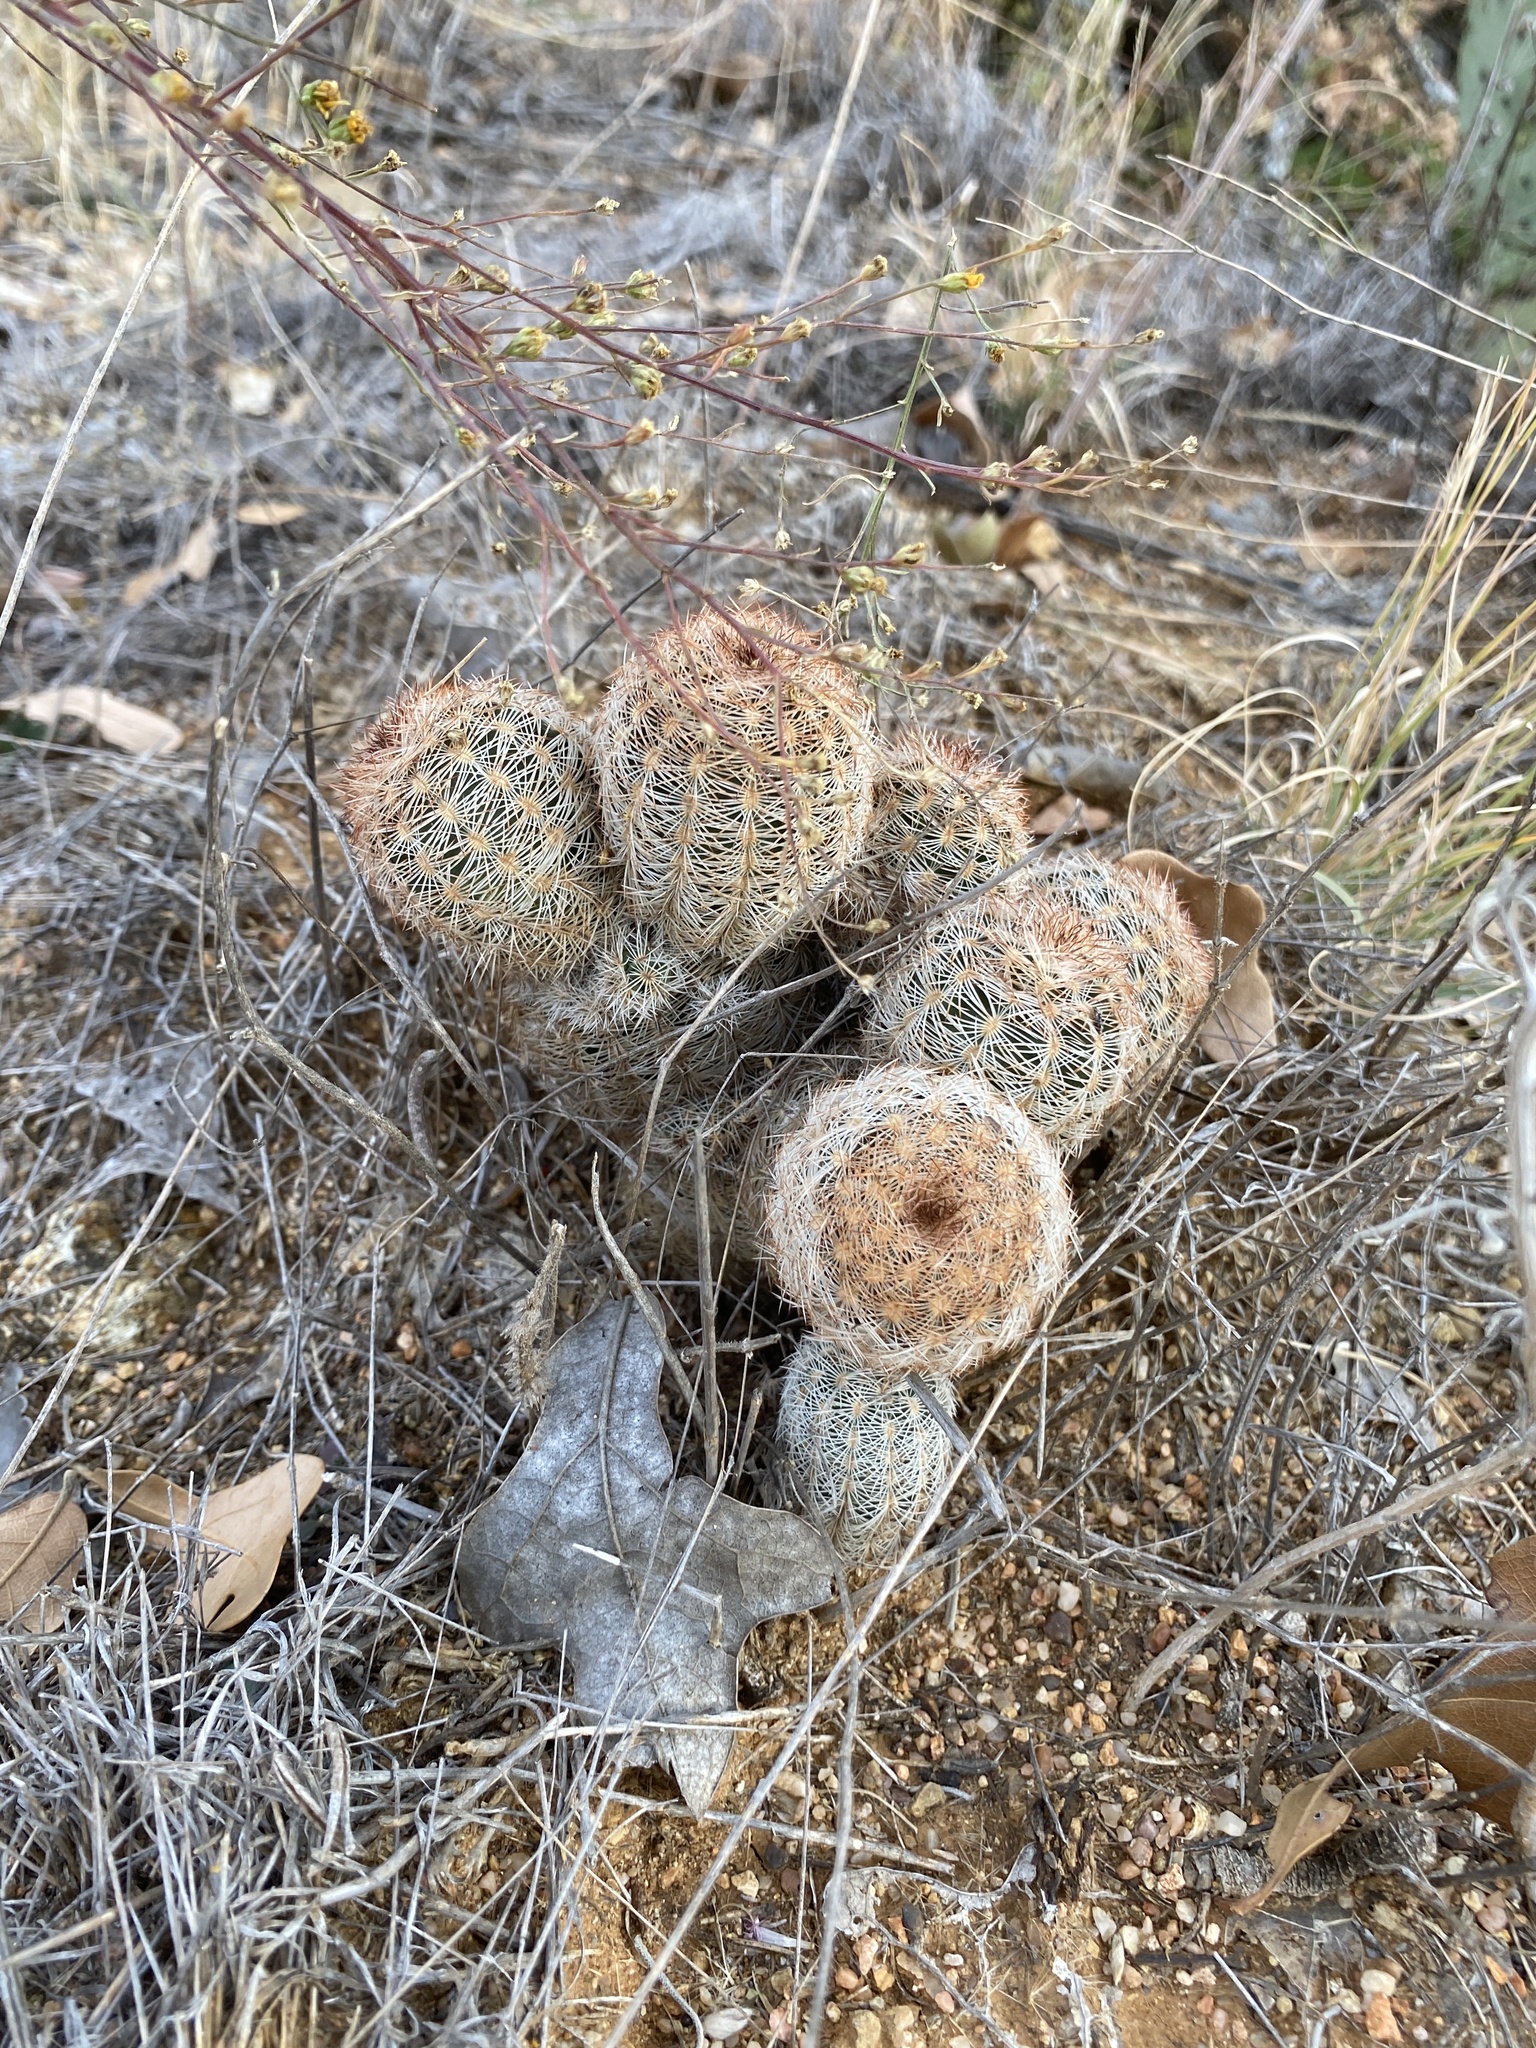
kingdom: Plantae
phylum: Tracheophyta
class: Magnoliopsida
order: Caryophyllales
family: Cactaceae
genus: Echinocereus
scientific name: Echinocereus reichenbachii
